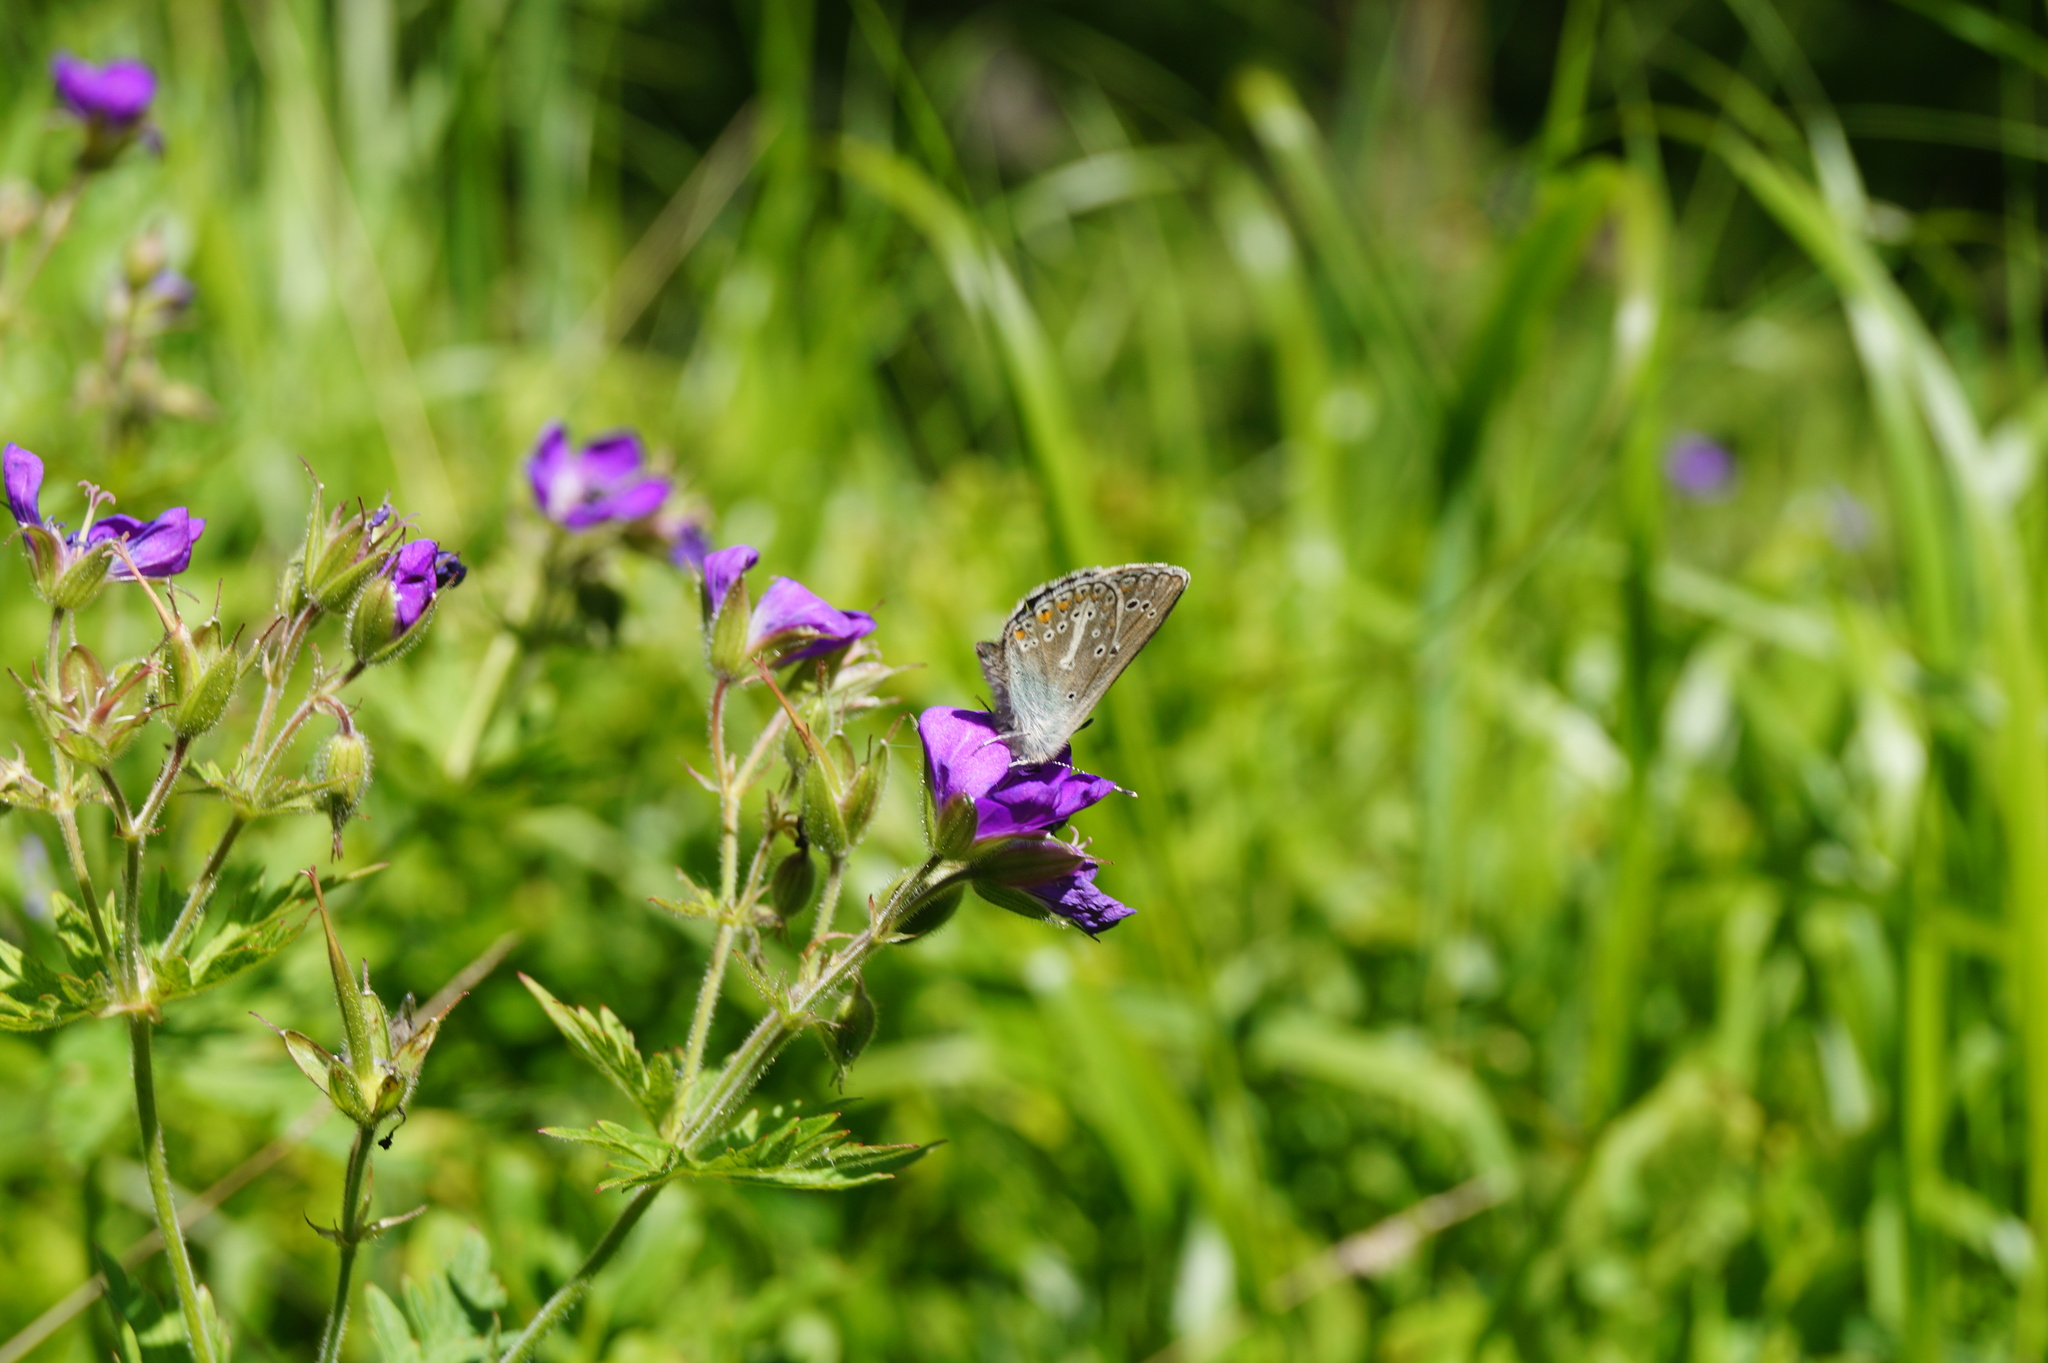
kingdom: Animalia
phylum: Arthropoda
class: Insecta
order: Lepidoptera
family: Lycaenidae
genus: Eumedonia
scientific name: Eumedonia eumedon
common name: Geranium argus
